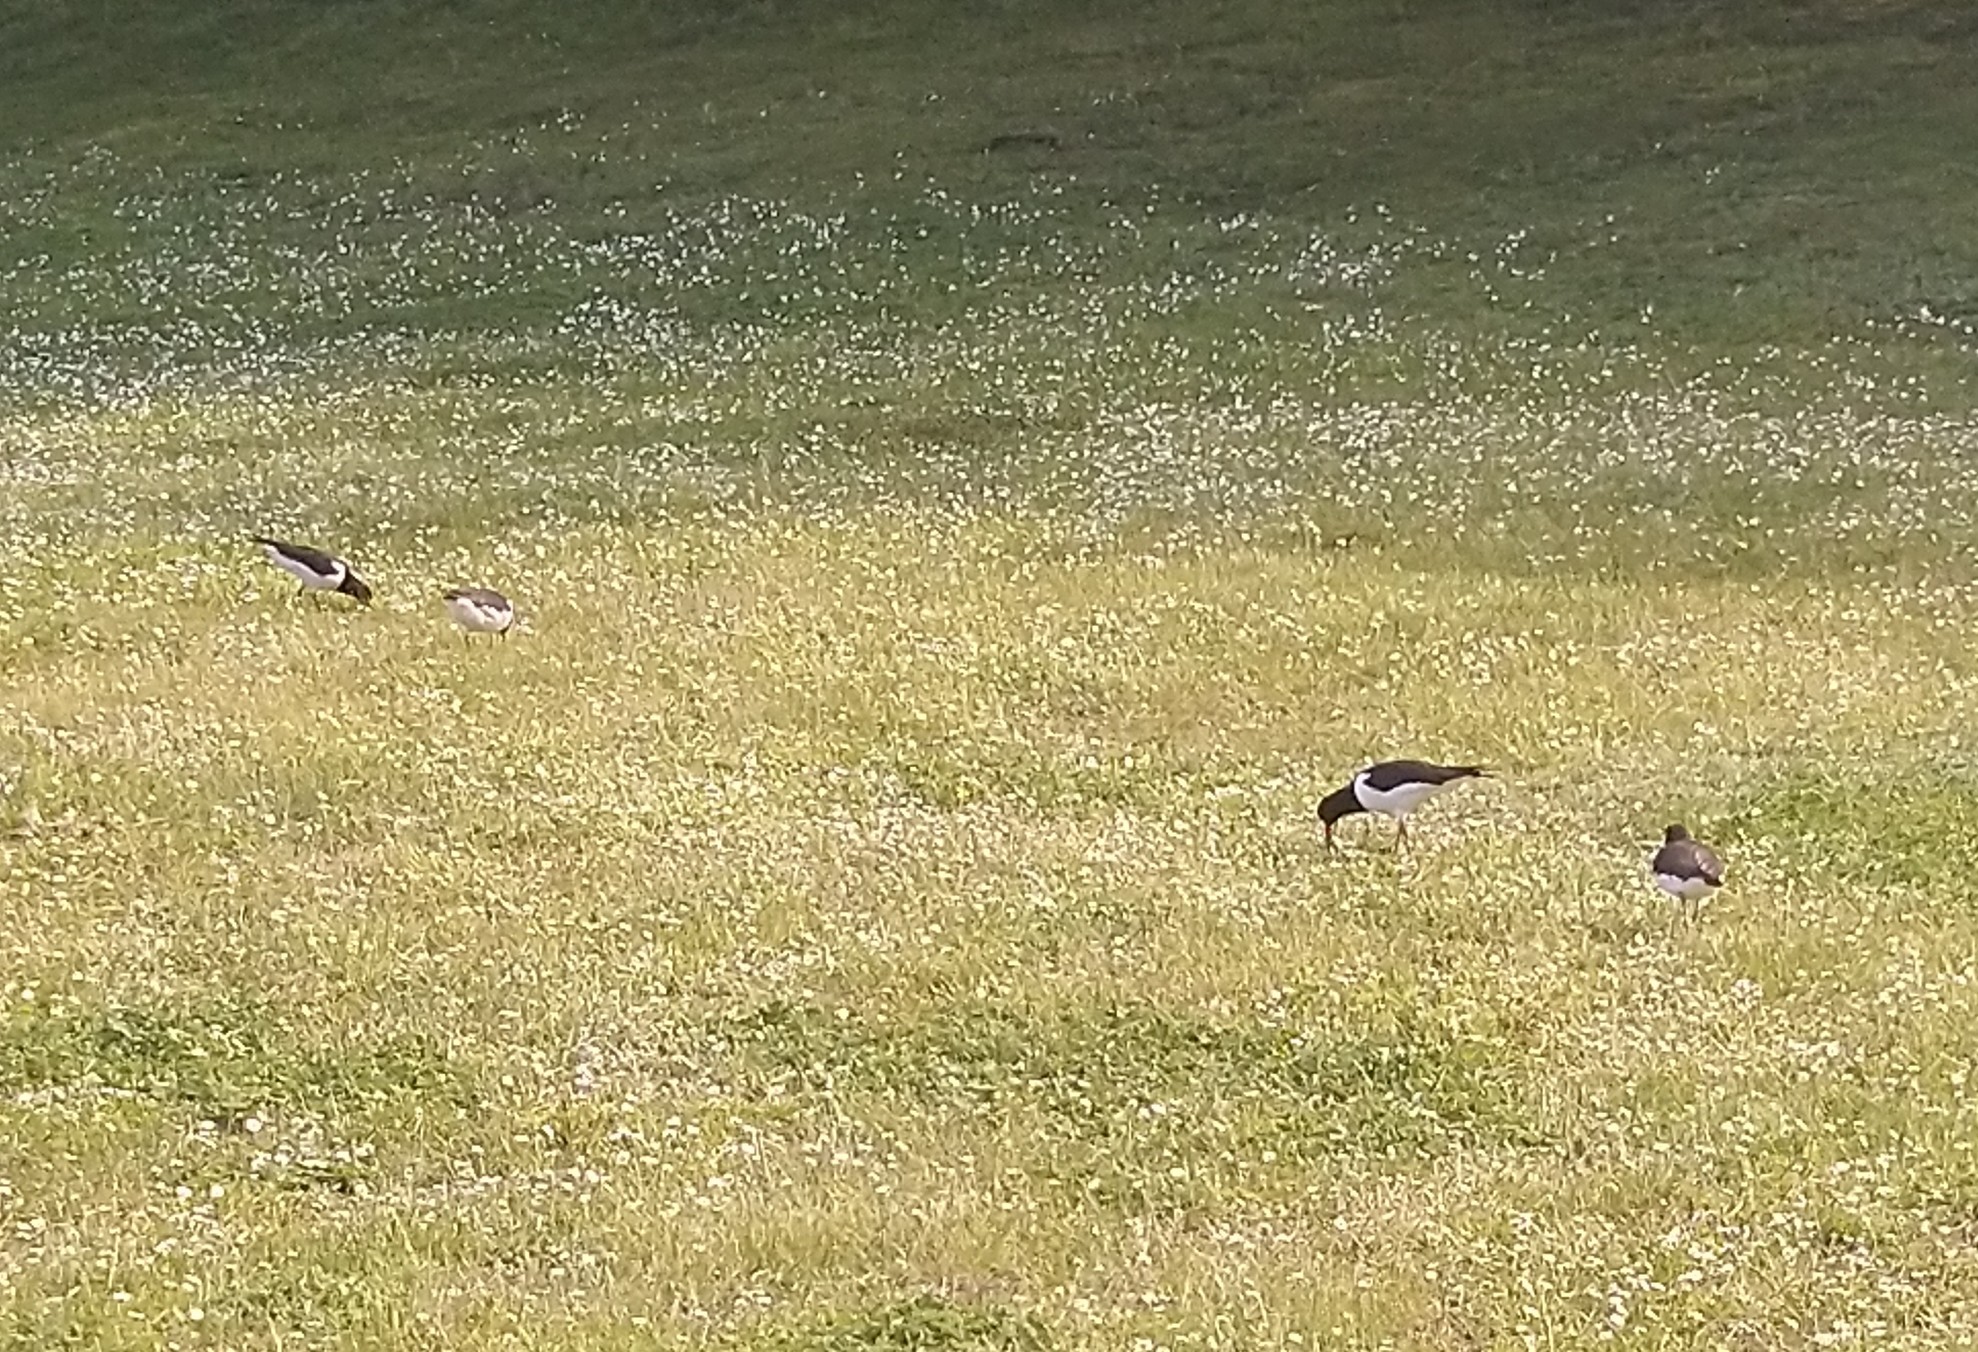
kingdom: Animalia
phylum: Chordata
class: Aves
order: Charadriiformes
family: Haematopodidae
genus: Haematopus
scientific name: Haematopus ostralegus
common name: Eurasian oystercatcher
